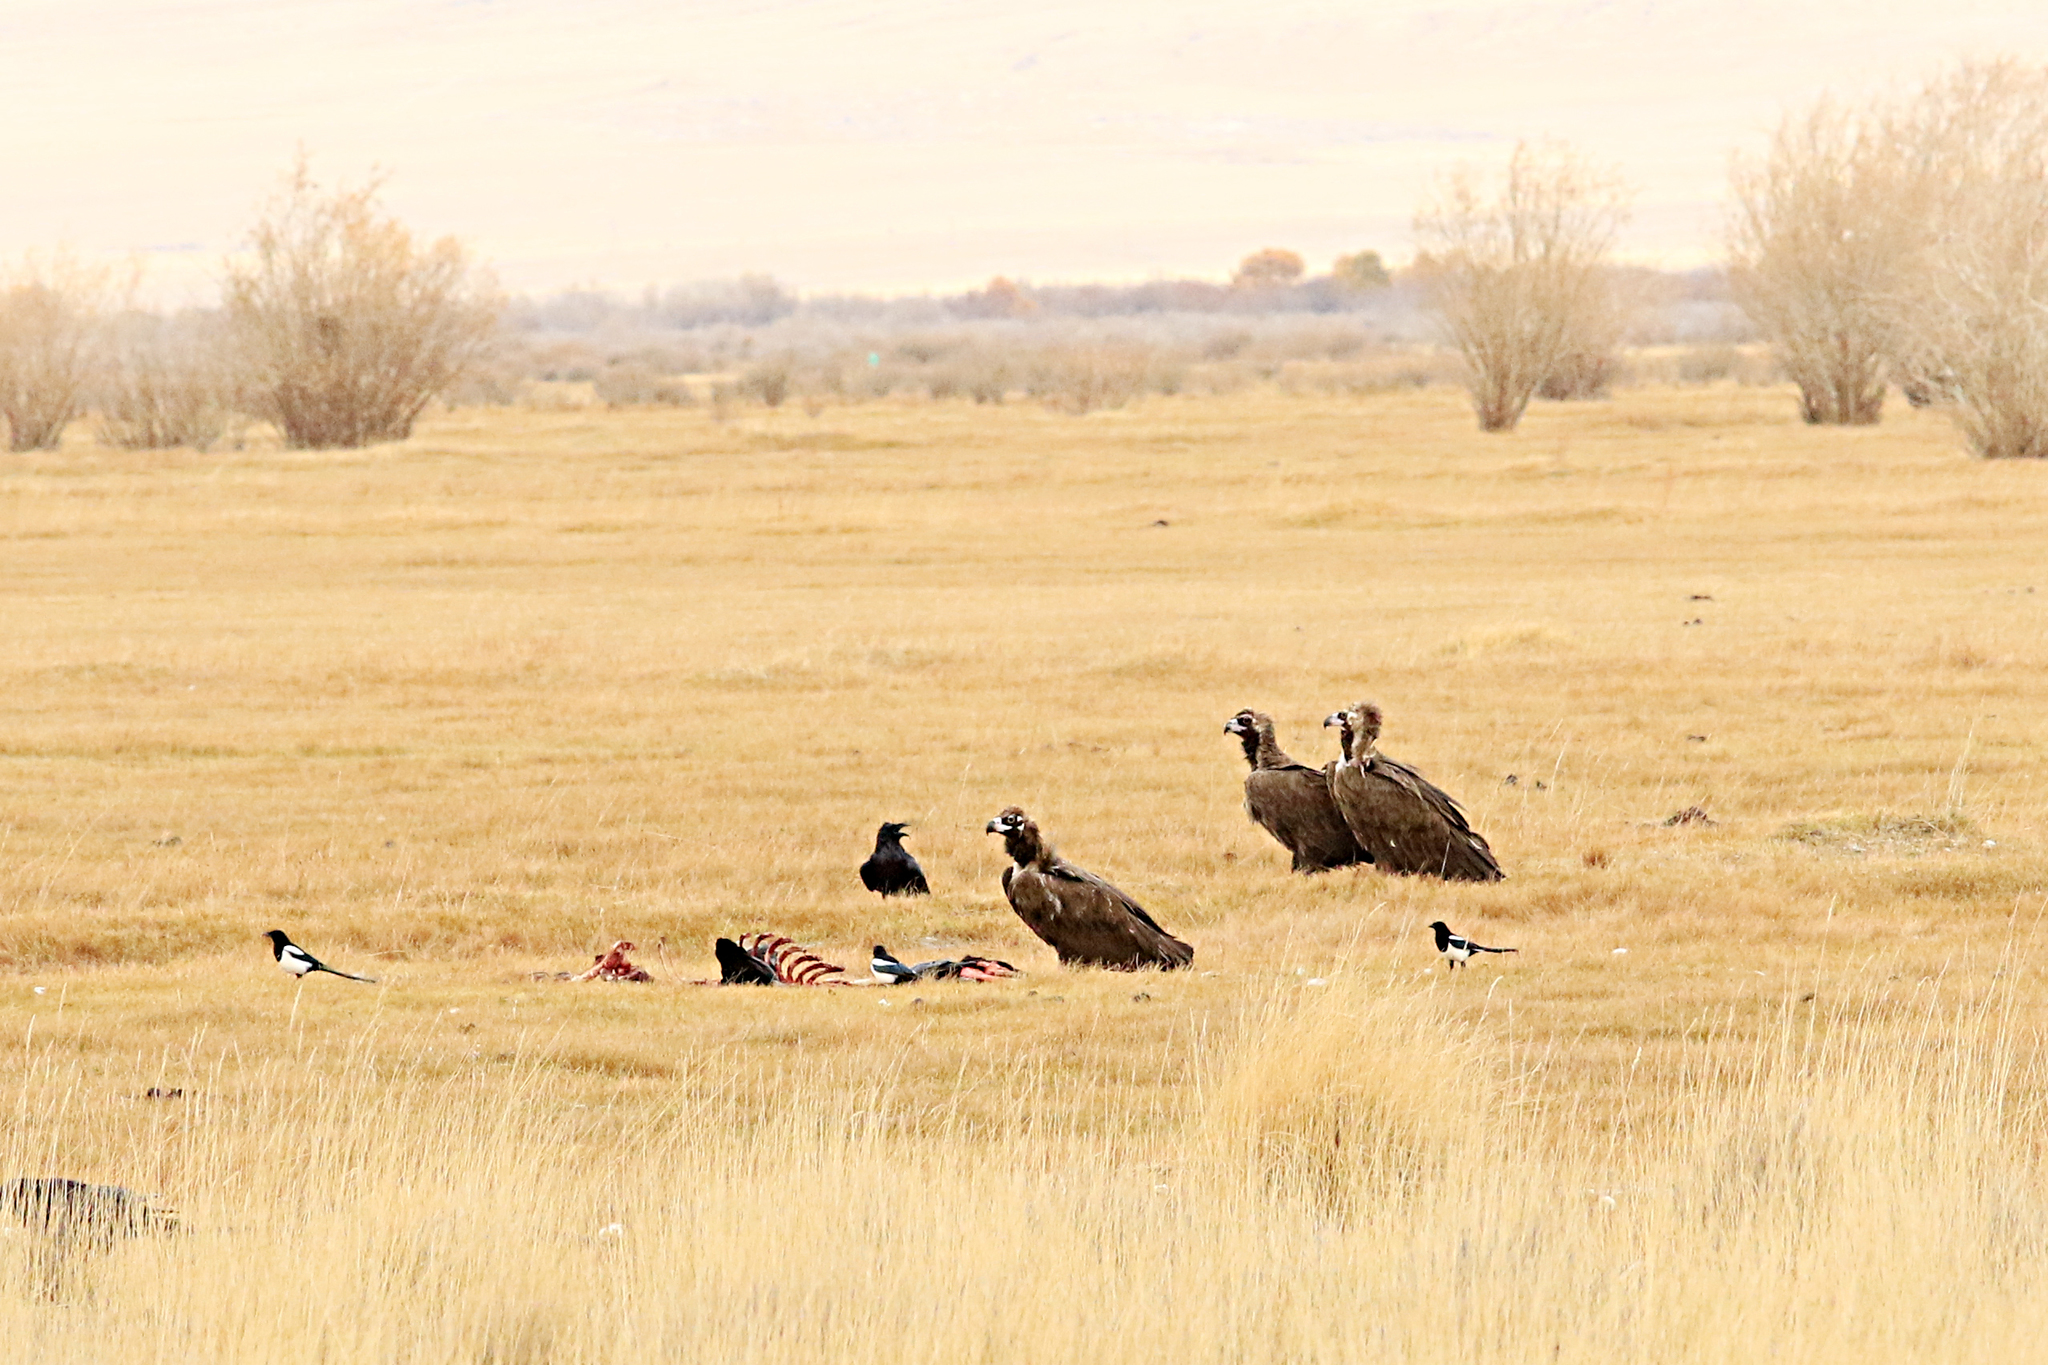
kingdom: Animalia
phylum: Chordata
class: Aves
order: Accipitriformes
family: Accipitridae
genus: Aegypius
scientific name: Aegypius monachus
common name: Cinereous vulture
